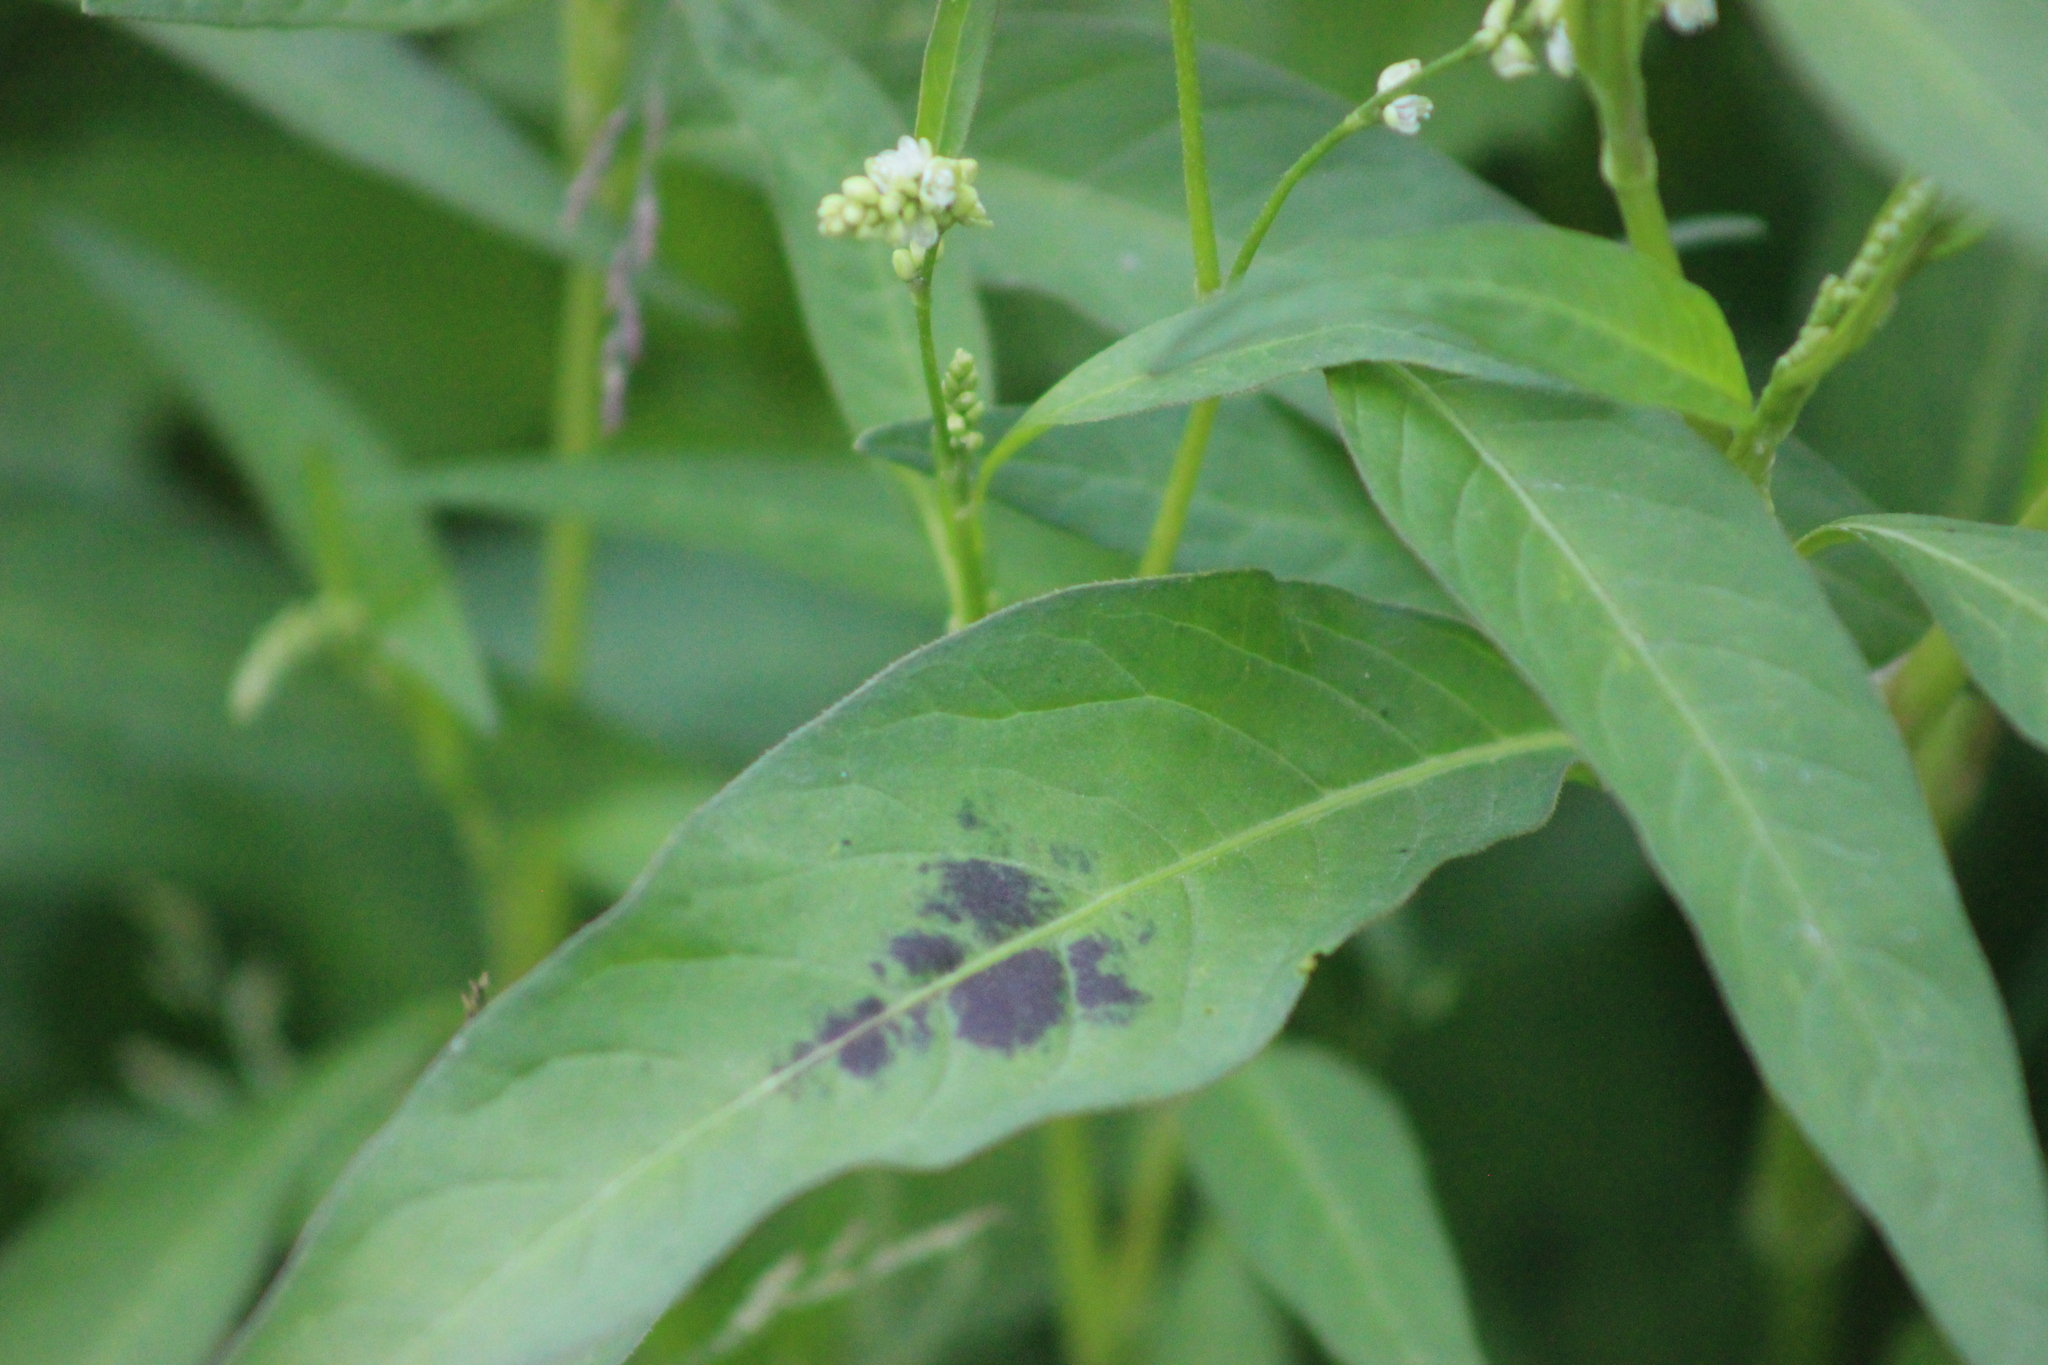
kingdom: Plantae
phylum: Tracheophyta
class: Magnoliopsida
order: Caryophyllales
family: Polygonaceae
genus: Persicaria
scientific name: Persicaria maculosa
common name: Redshank
